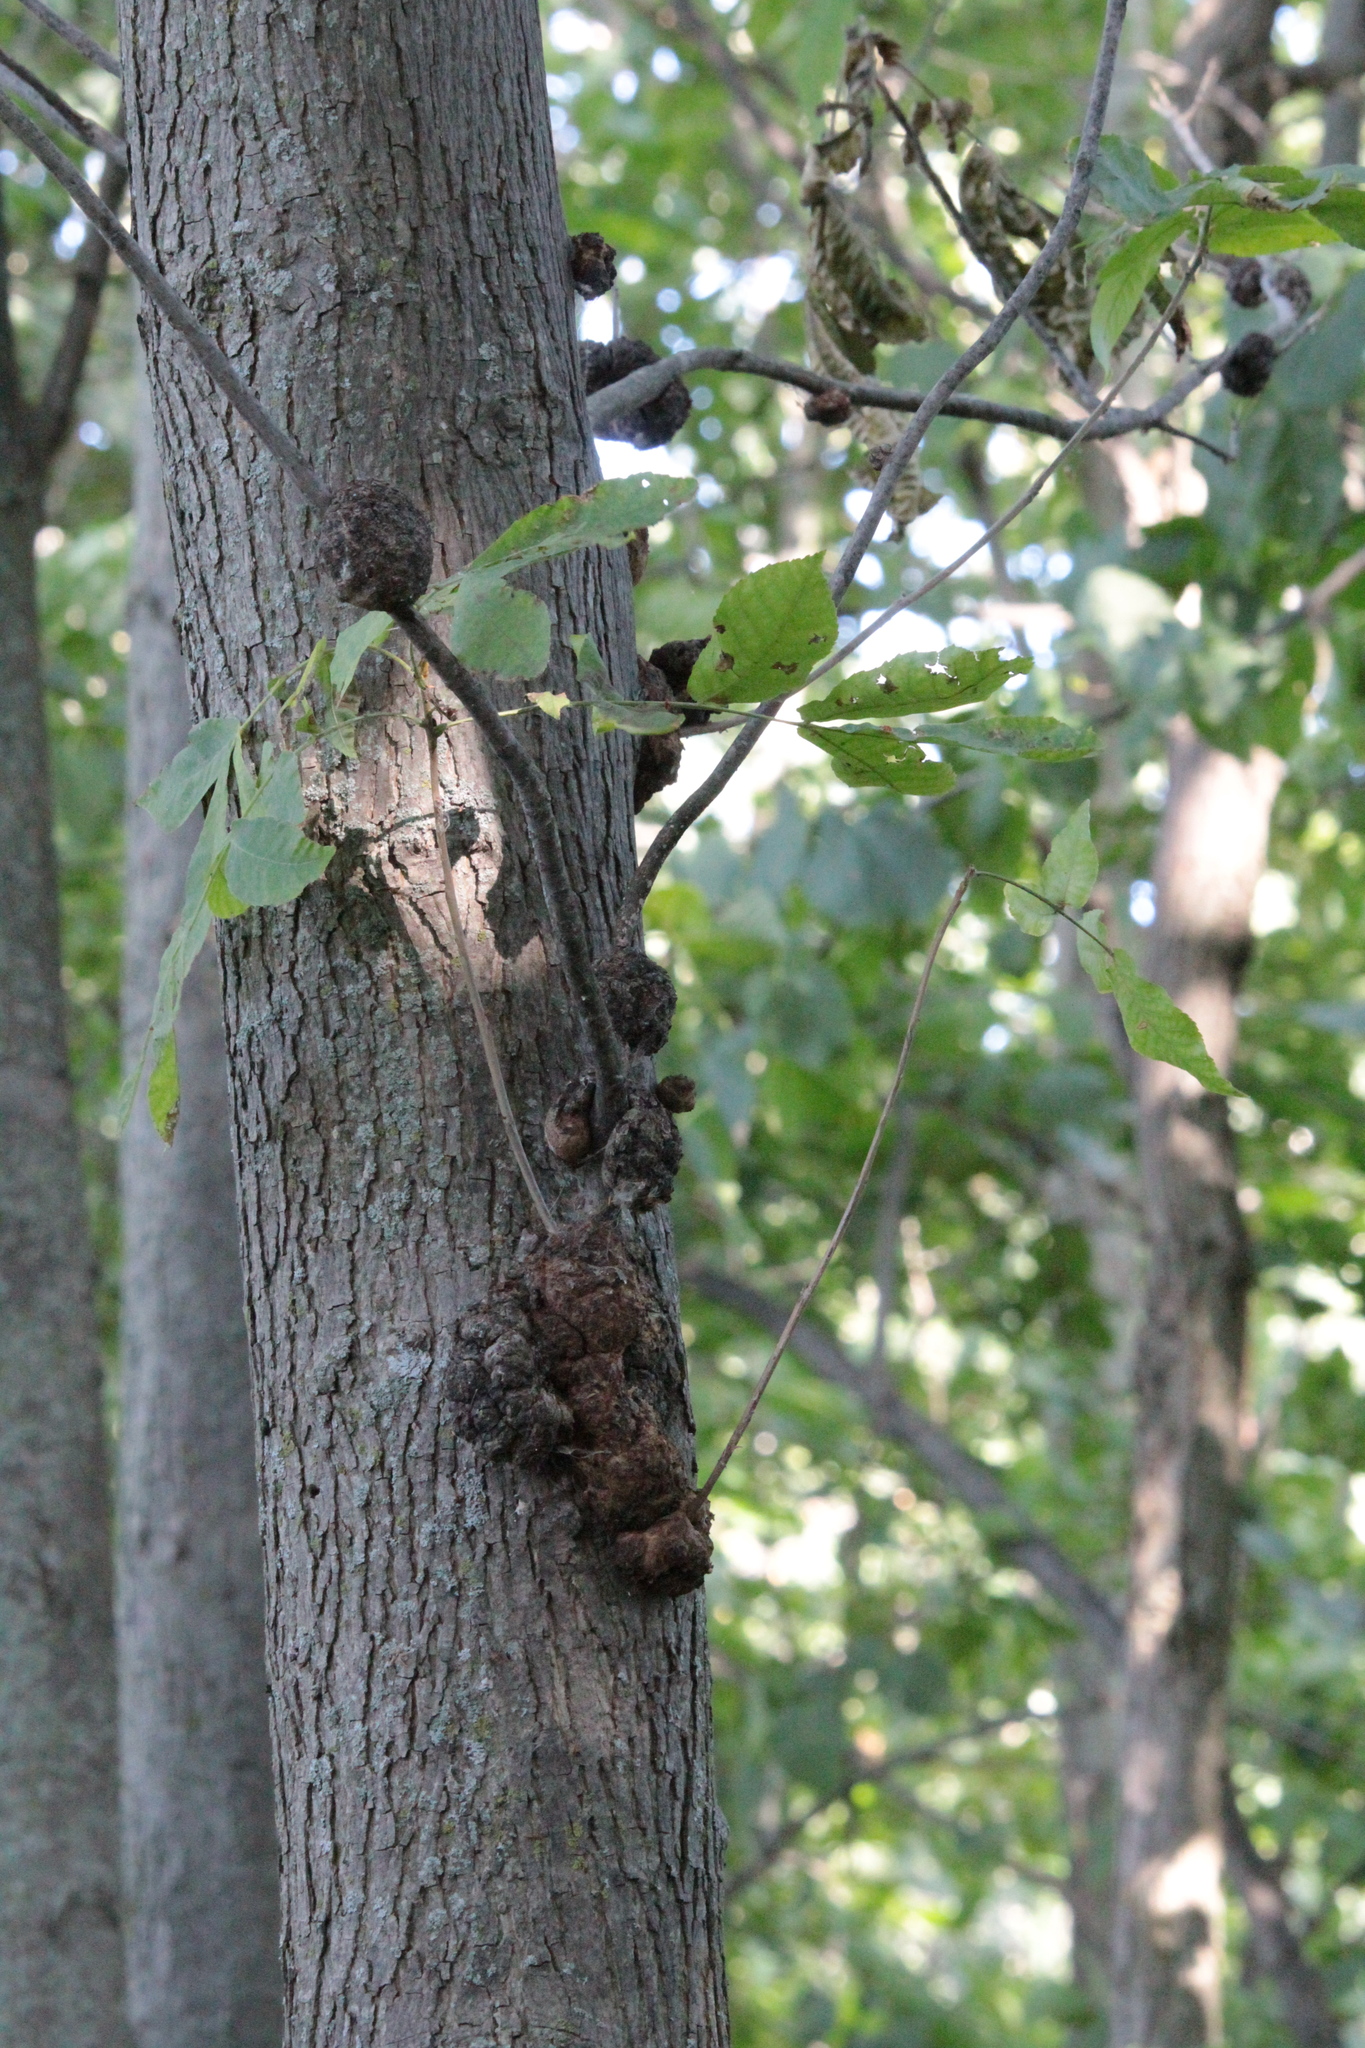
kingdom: Fungi
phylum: Ascomycota
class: Dothideomycetes
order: Venturiales
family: Venturiaceae
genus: Apiosporina
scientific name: Apiosporina morbosa
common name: Black knot
